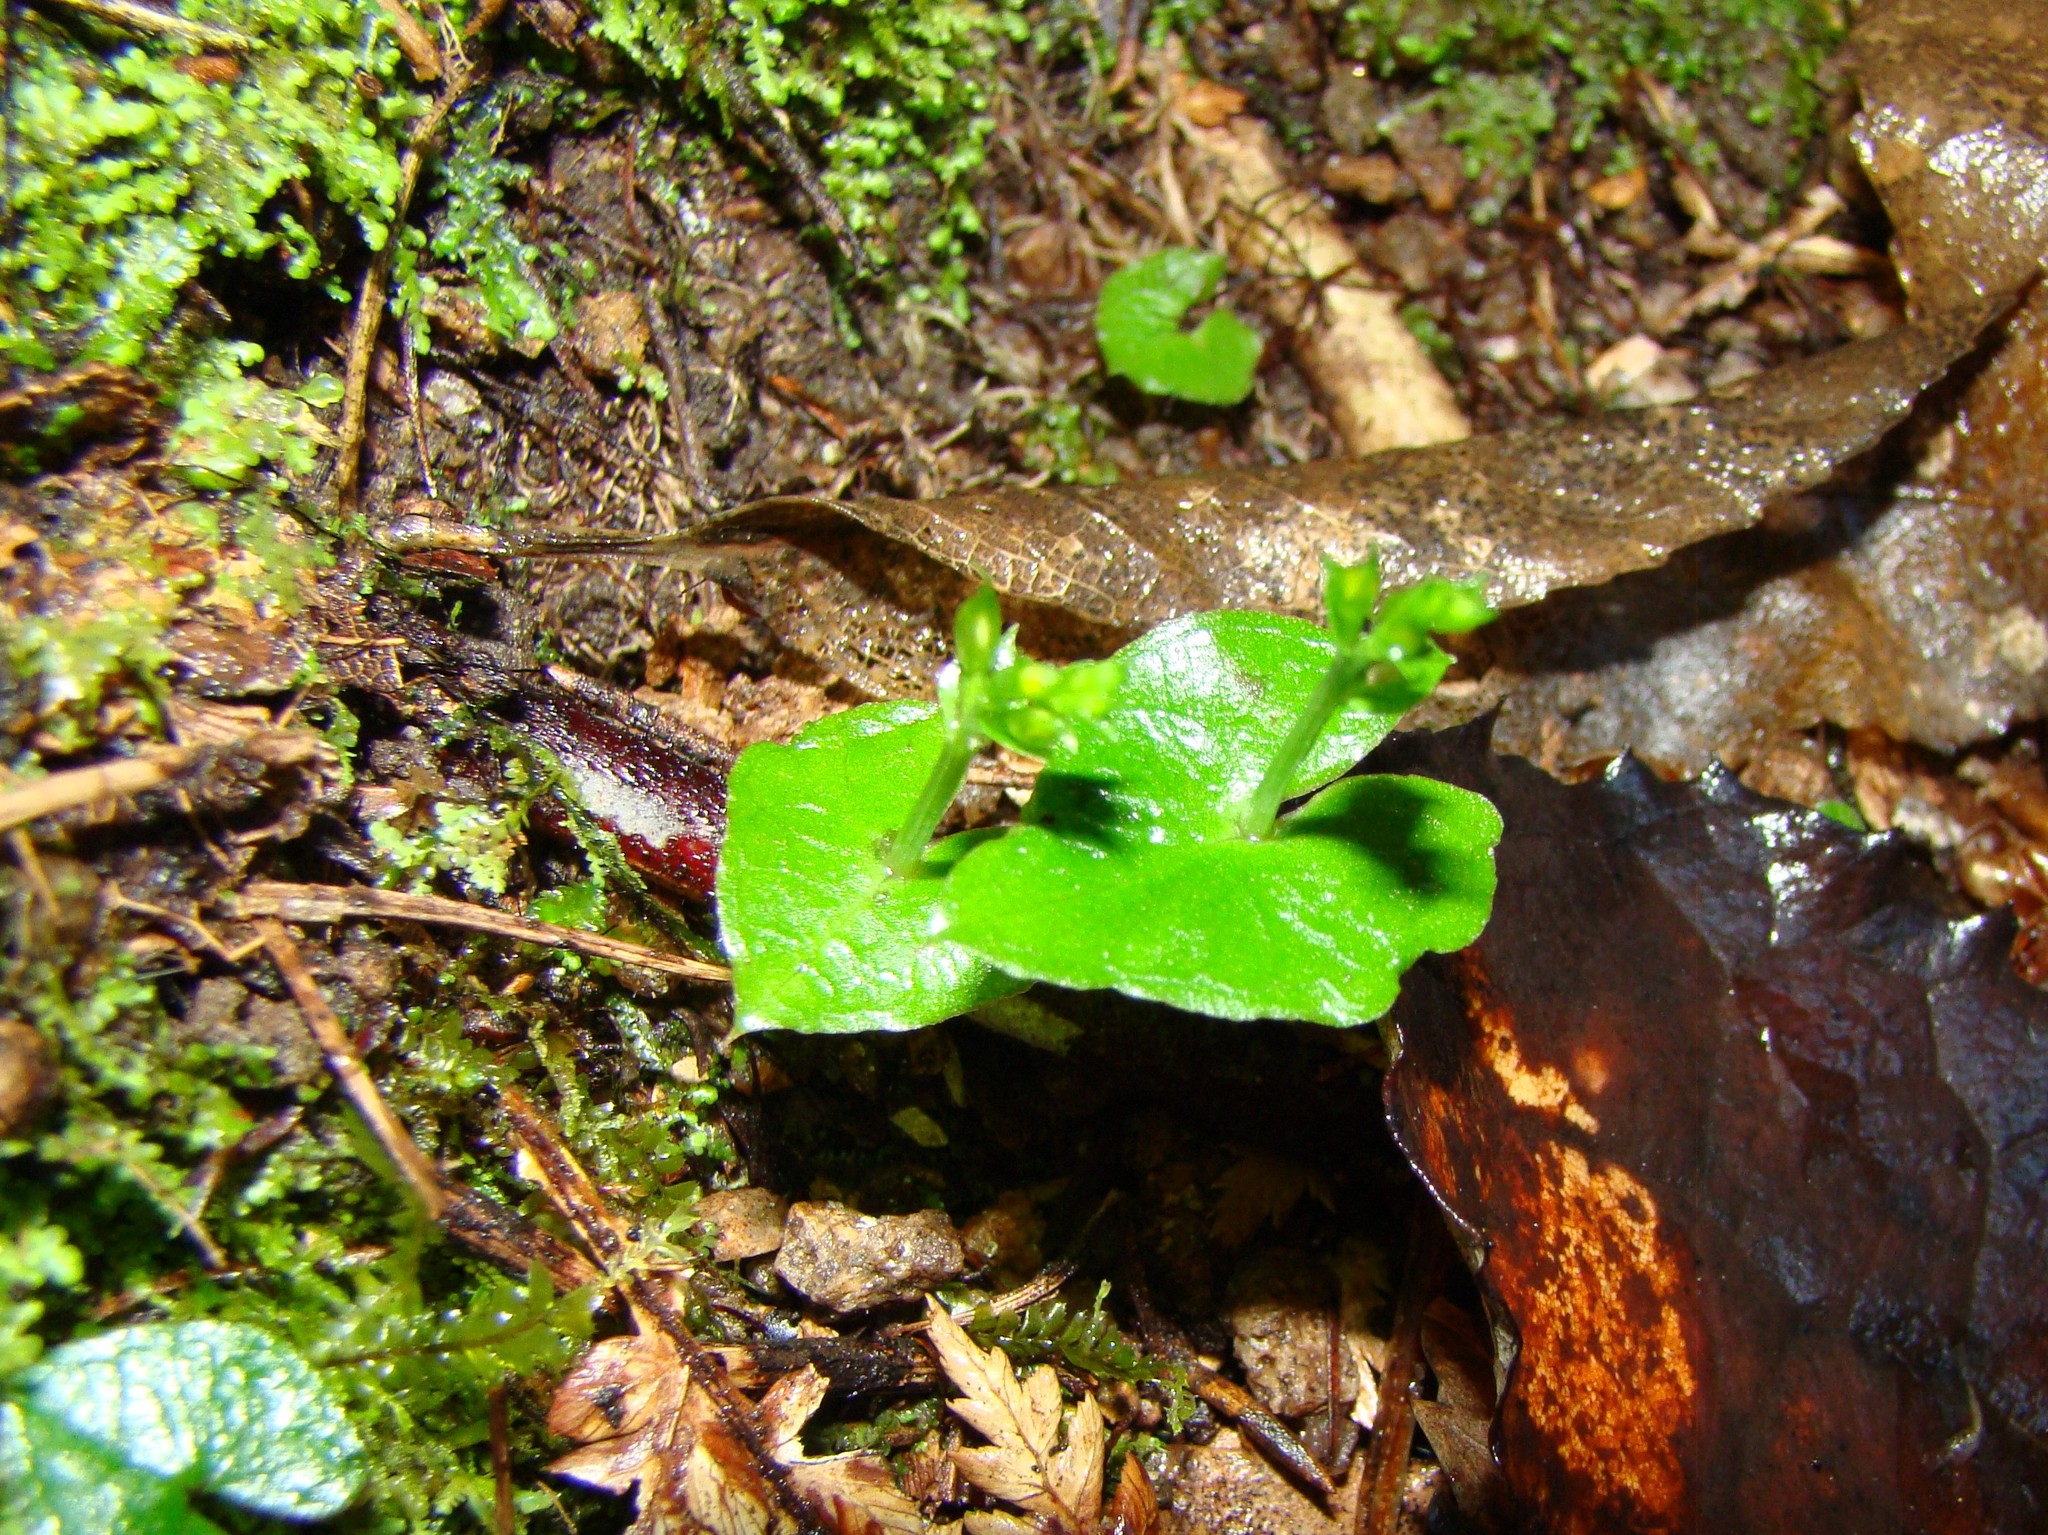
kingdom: Plantae
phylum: Tracheophyta
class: Liliopsida
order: Asparagales
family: Orchidaceae
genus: Acianthus
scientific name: Acianthus sinclairii
